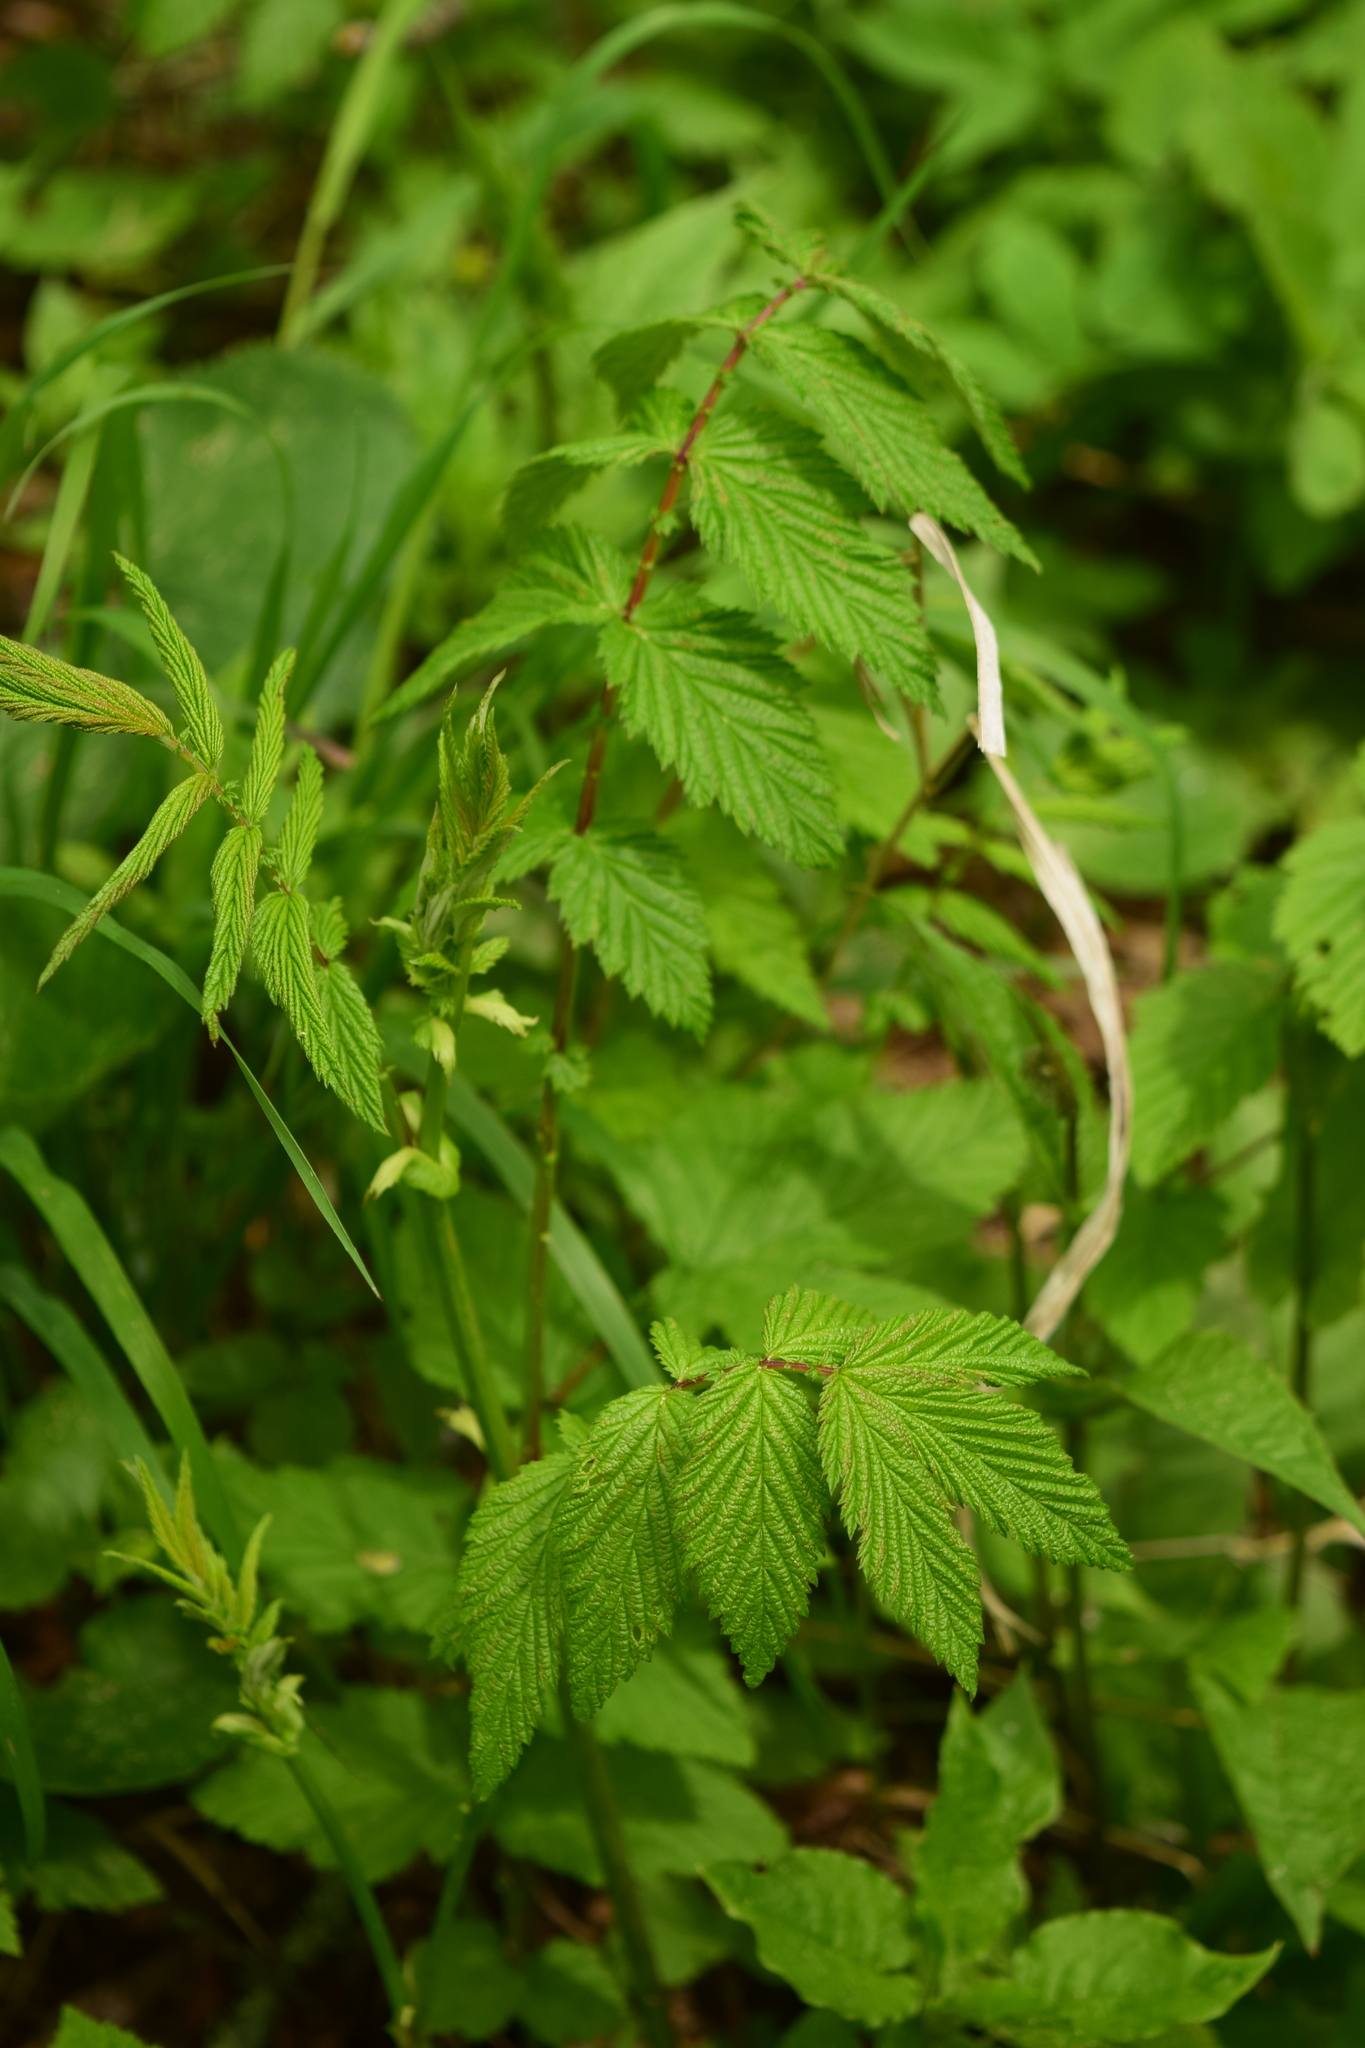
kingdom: Plantae
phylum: Tracheophyta
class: Magnoliopsida
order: Rosales
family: Rosaceae
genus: Filipendula
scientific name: Filipendula ulmaria
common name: Meadowsweet
